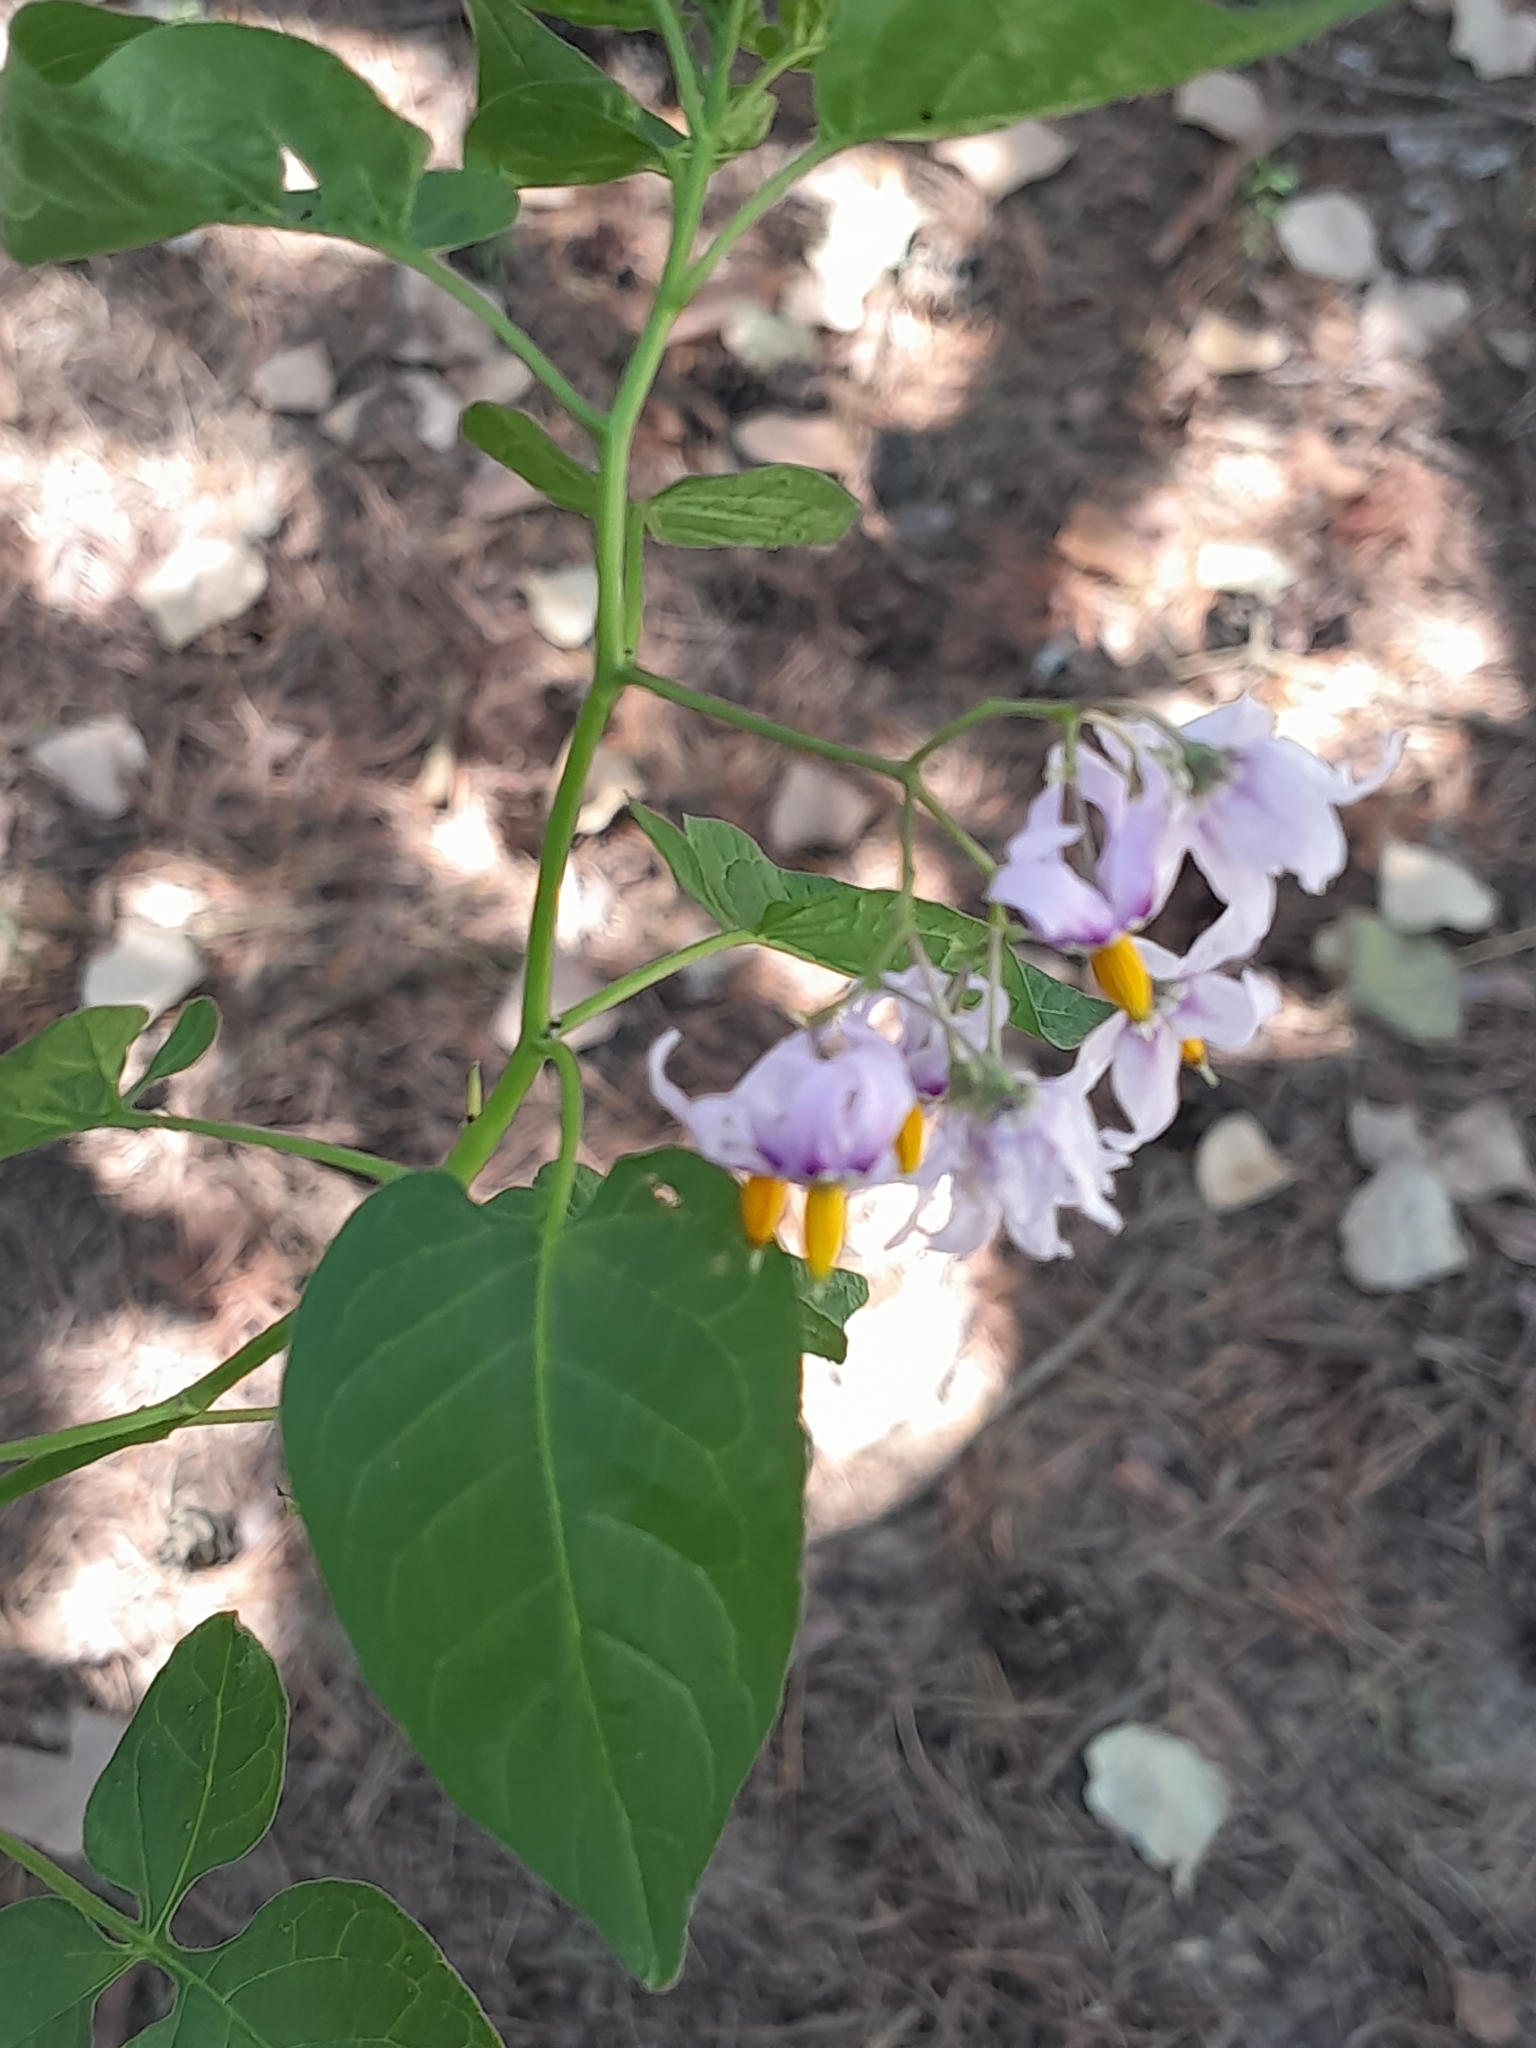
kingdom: Plantae
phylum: Tracheophyta
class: Magnoliopsida
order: Solanales
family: Solanaceae
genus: Solanum
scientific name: Solanum dulcamara
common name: Climbing nightshade
